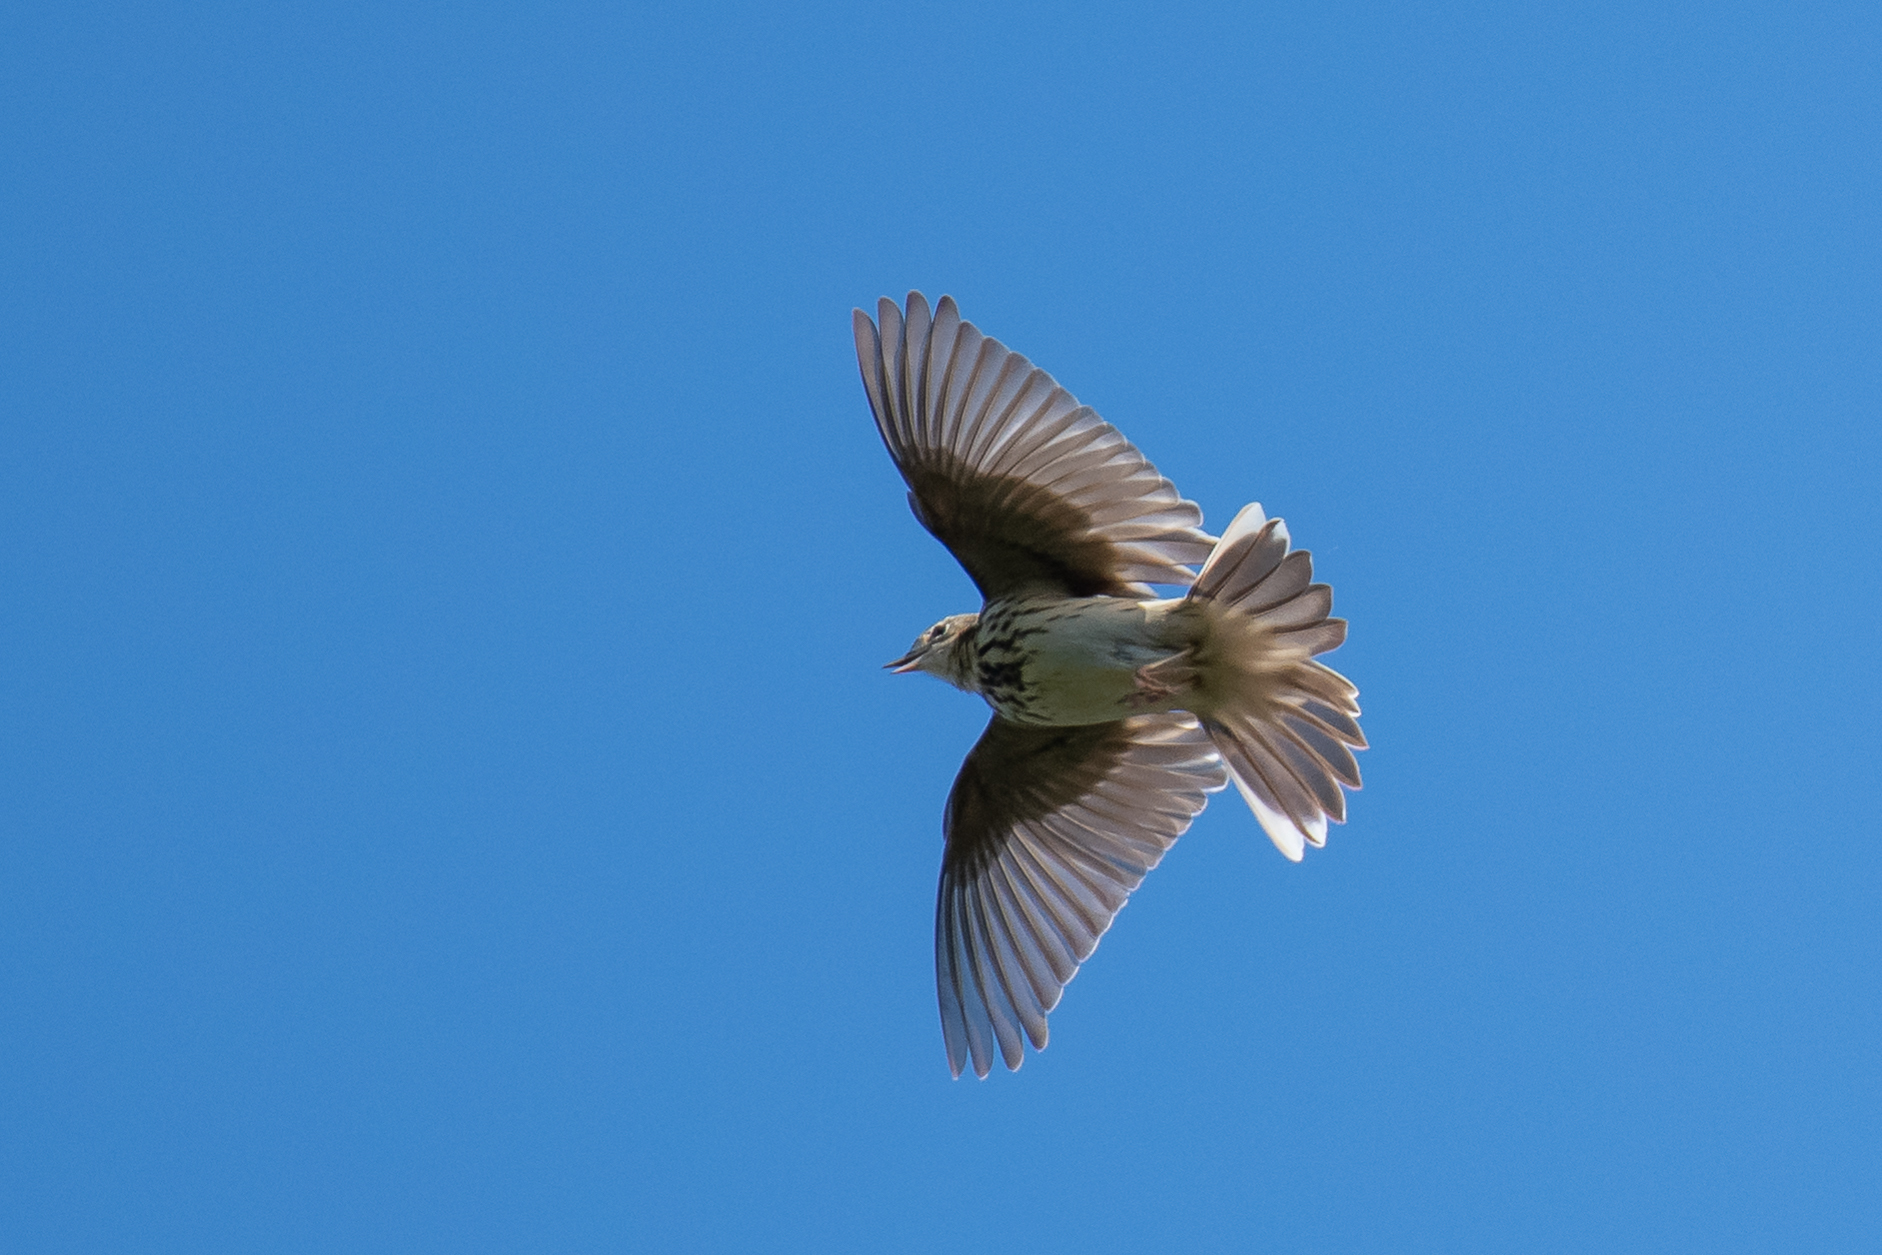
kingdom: Animalia
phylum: Chordata
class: Aves
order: Passeriformes
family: Motacillidae
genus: Anthus
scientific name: Anthus trivialis
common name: Tree pipit
